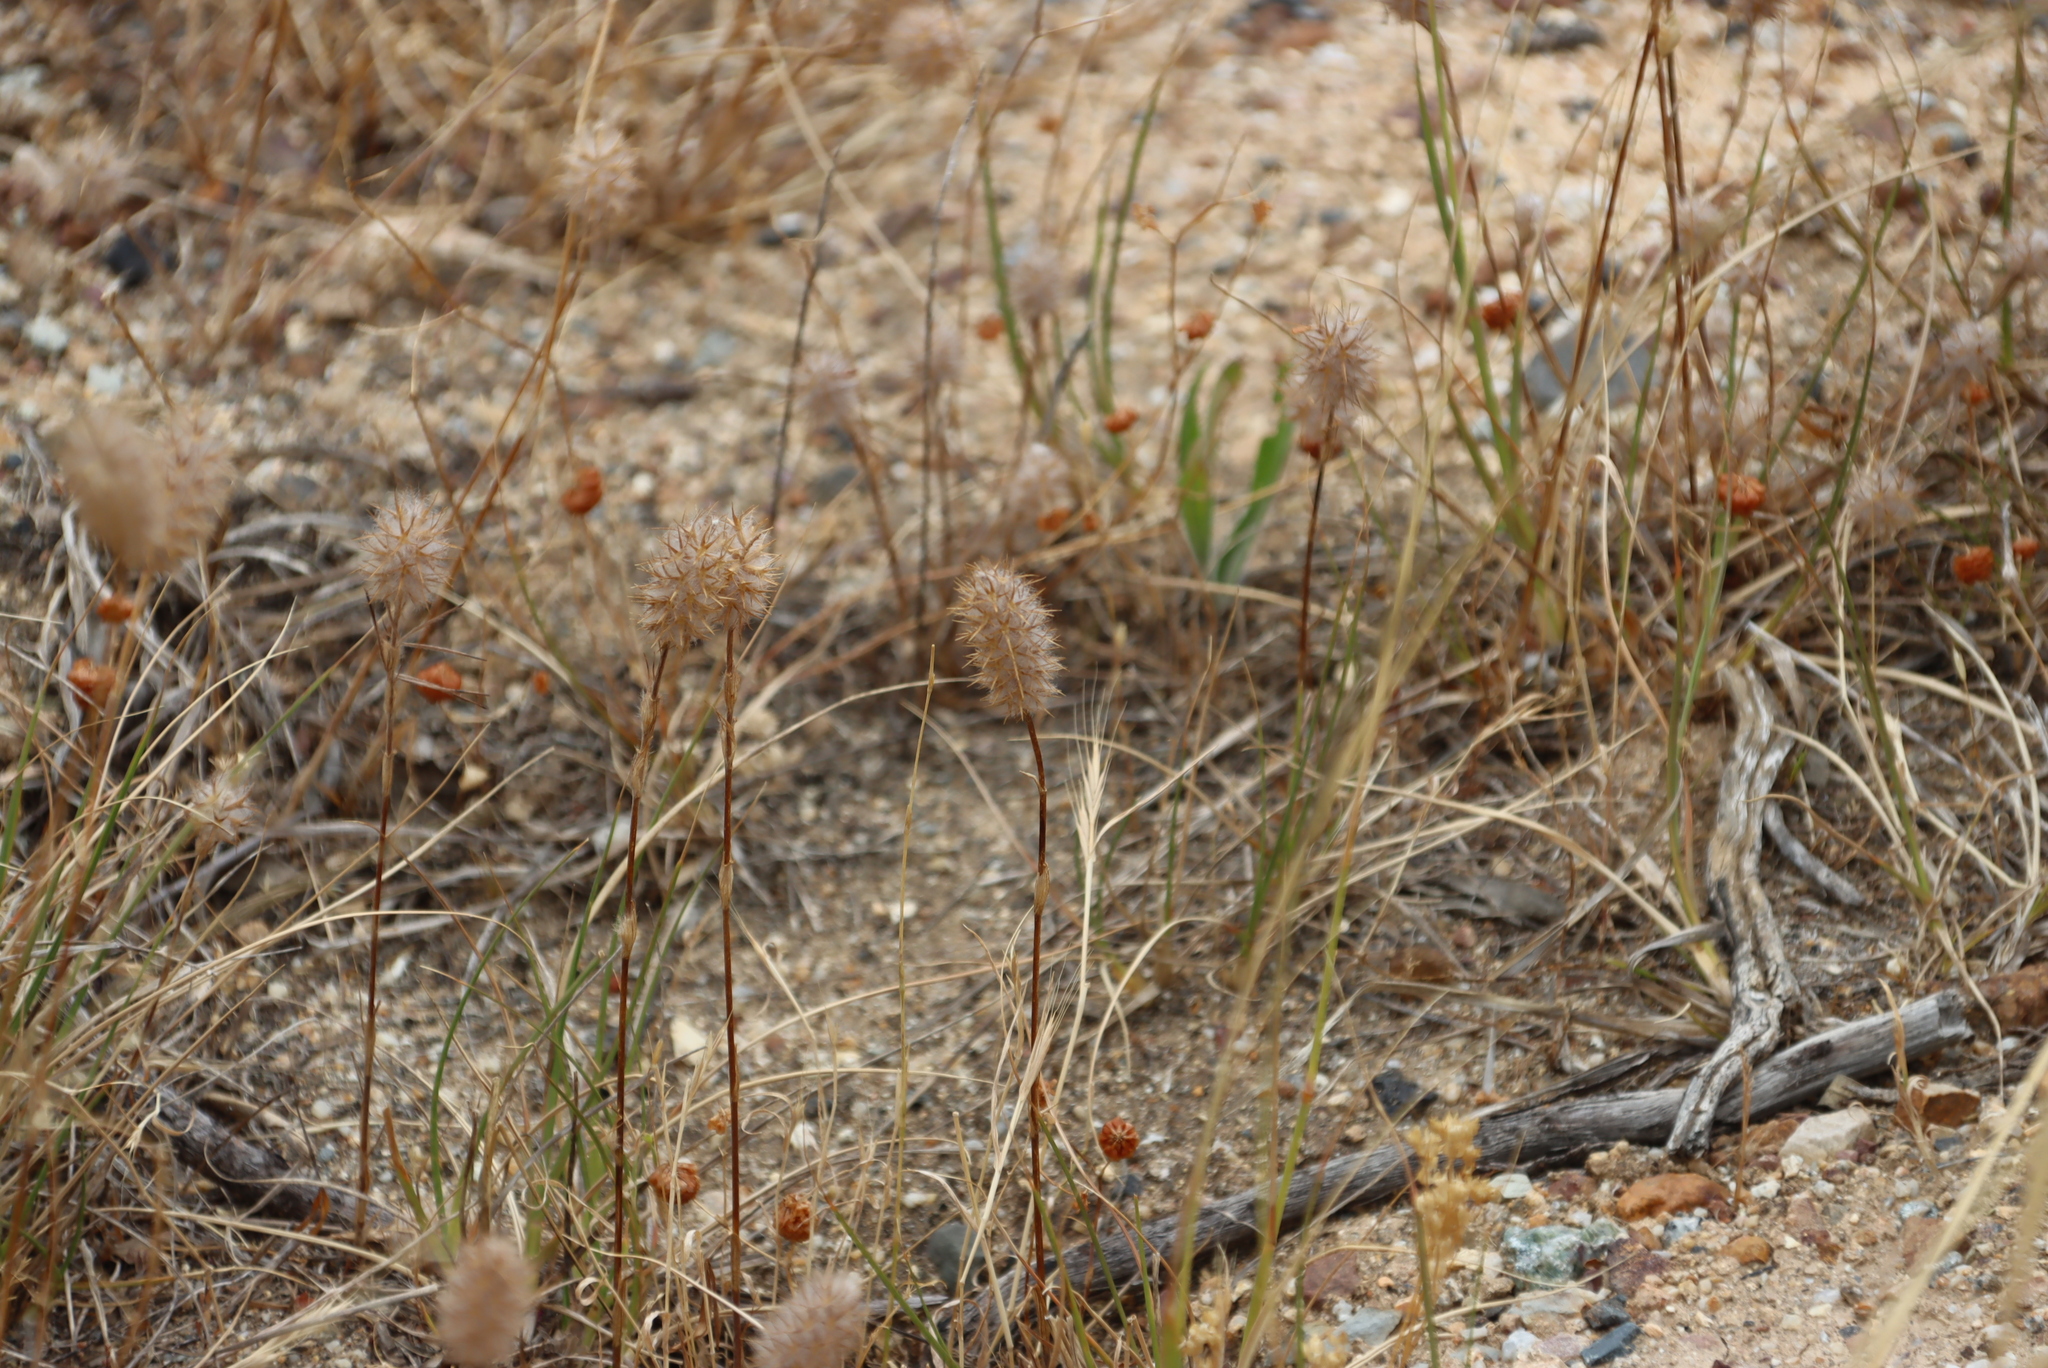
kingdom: Plantae
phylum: Tracheophyta
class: Magnoliopsida
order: Fabales
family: Fabaceae
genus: Trifolium
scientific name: Trifolium angustifolium
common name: Narrow clover
